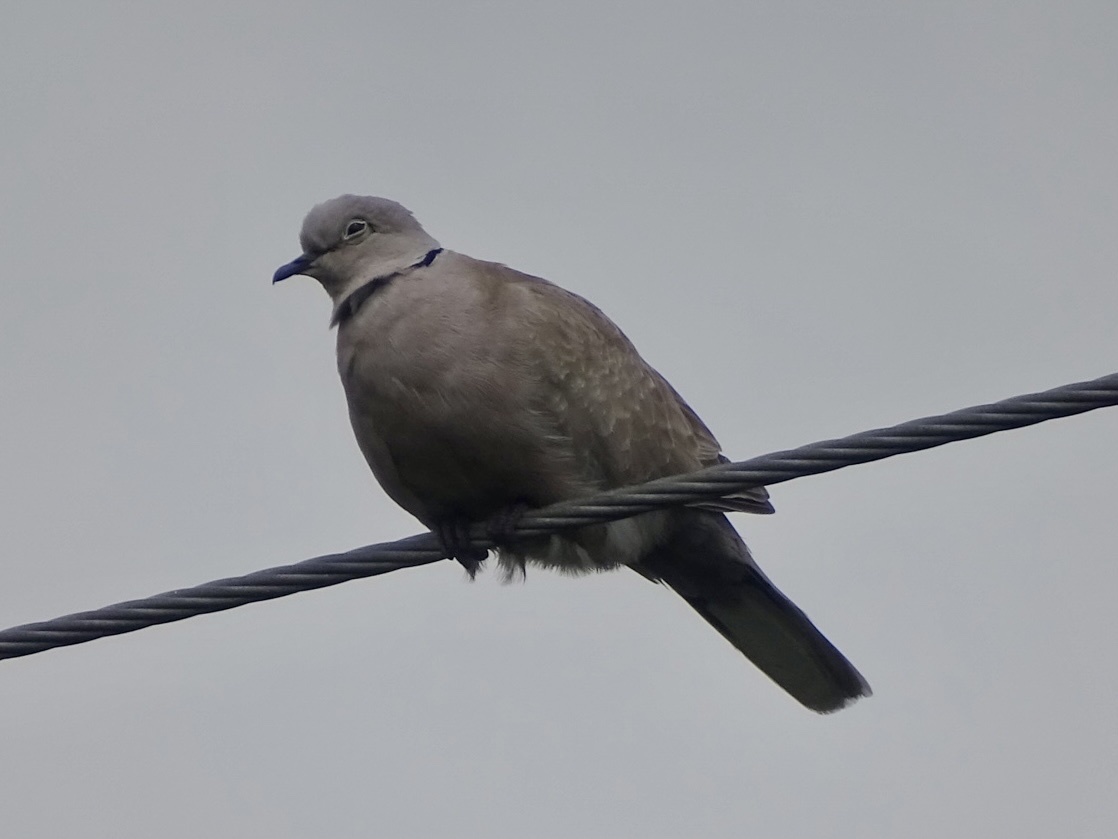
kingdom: Animalia
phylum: Chordata
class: Aves
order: Columbiformes
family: Columbidae
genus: Streptopelia
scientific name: Streptopelia decaocto
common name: Eurasian collared dove
